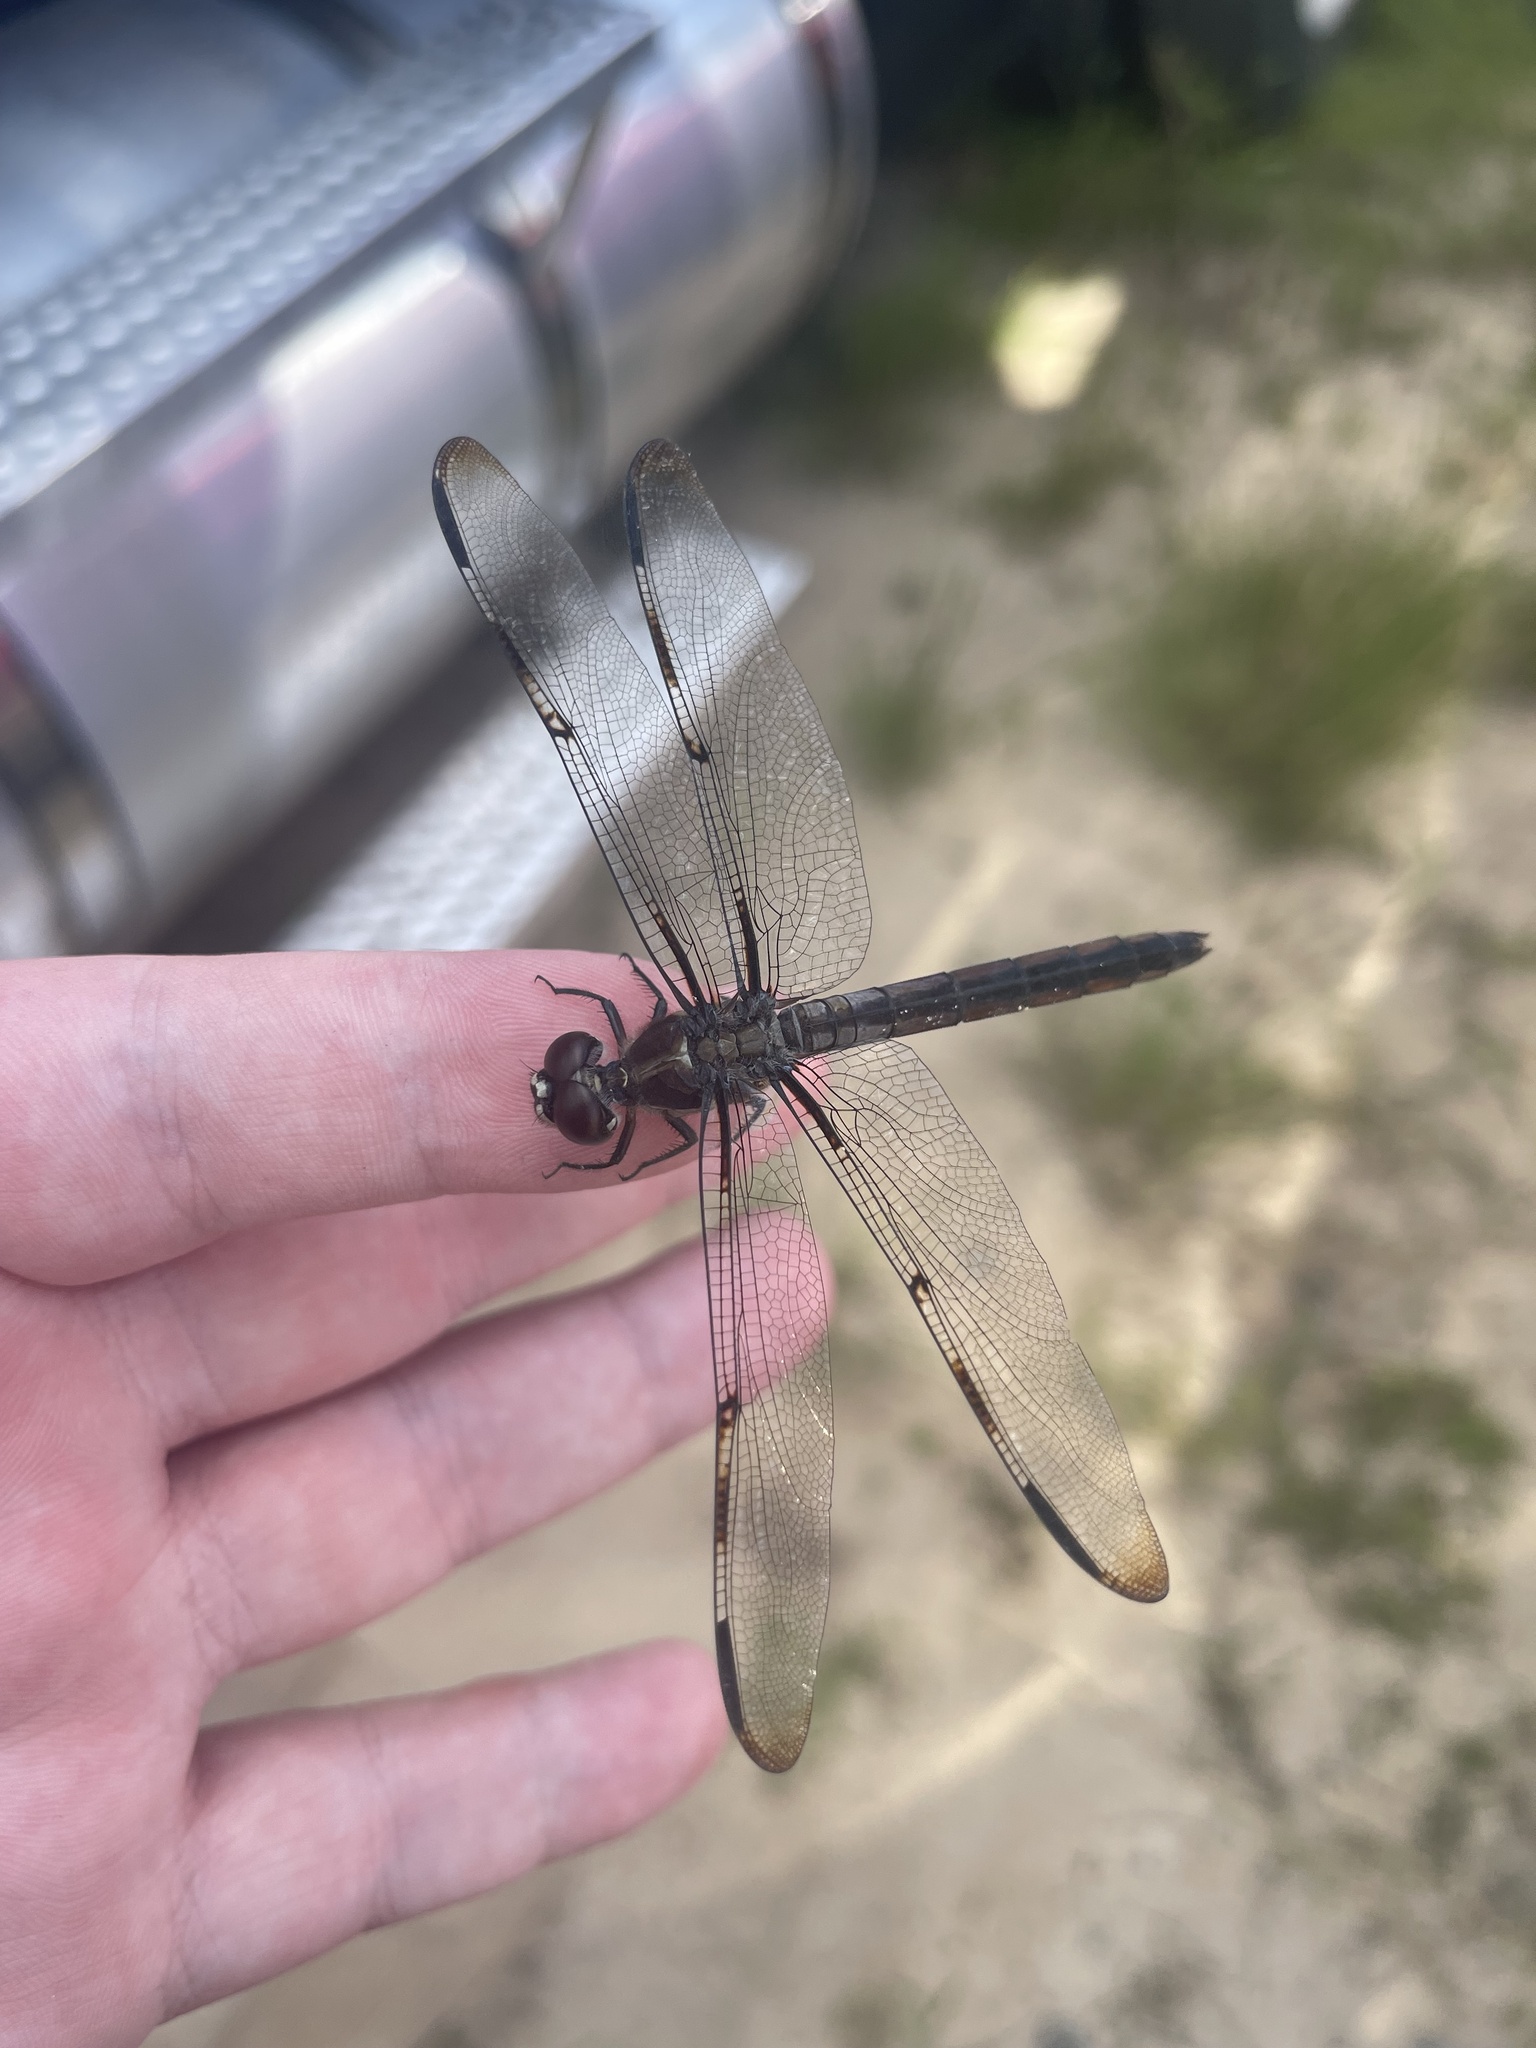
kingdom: Animalia
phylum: Arthropoda
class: Insecta
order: Odonata
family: Libellulidae
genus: Libellula
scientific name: Libellula axilena
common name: Bar-winged skimmer
